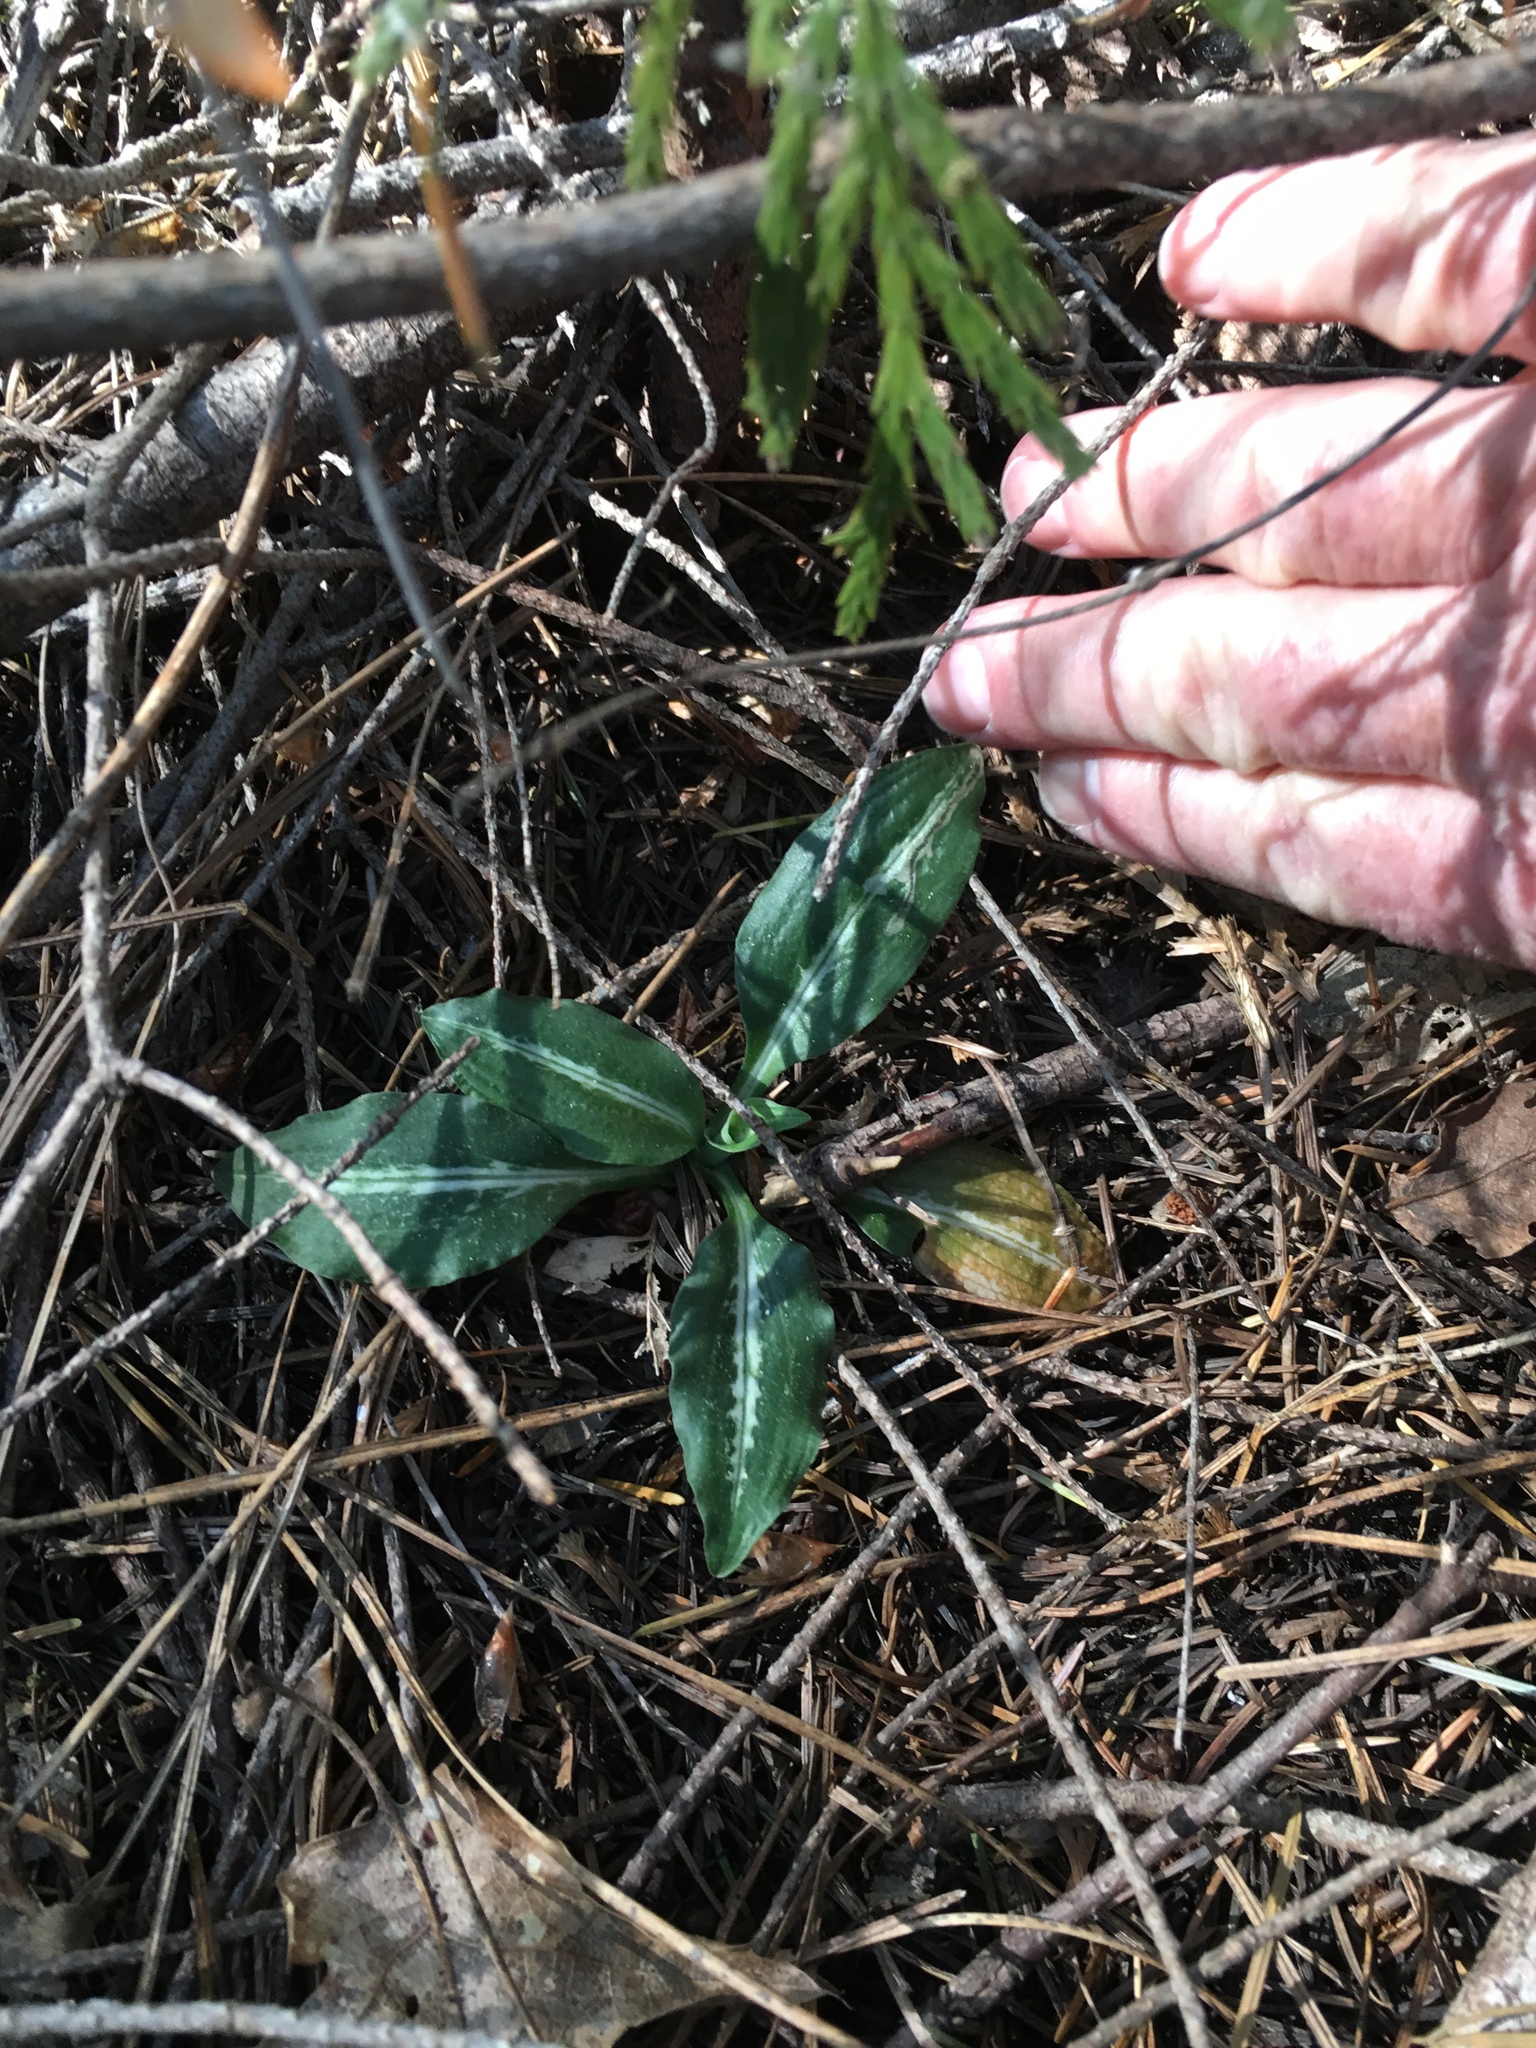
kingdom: Plantae
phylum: Tracheophyta
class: Liliopsida
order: Asparagales
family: Orchidaceae
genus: Goodyera
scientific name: Goodyera oblongifolia
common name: Giant rattlesnake-plantain
